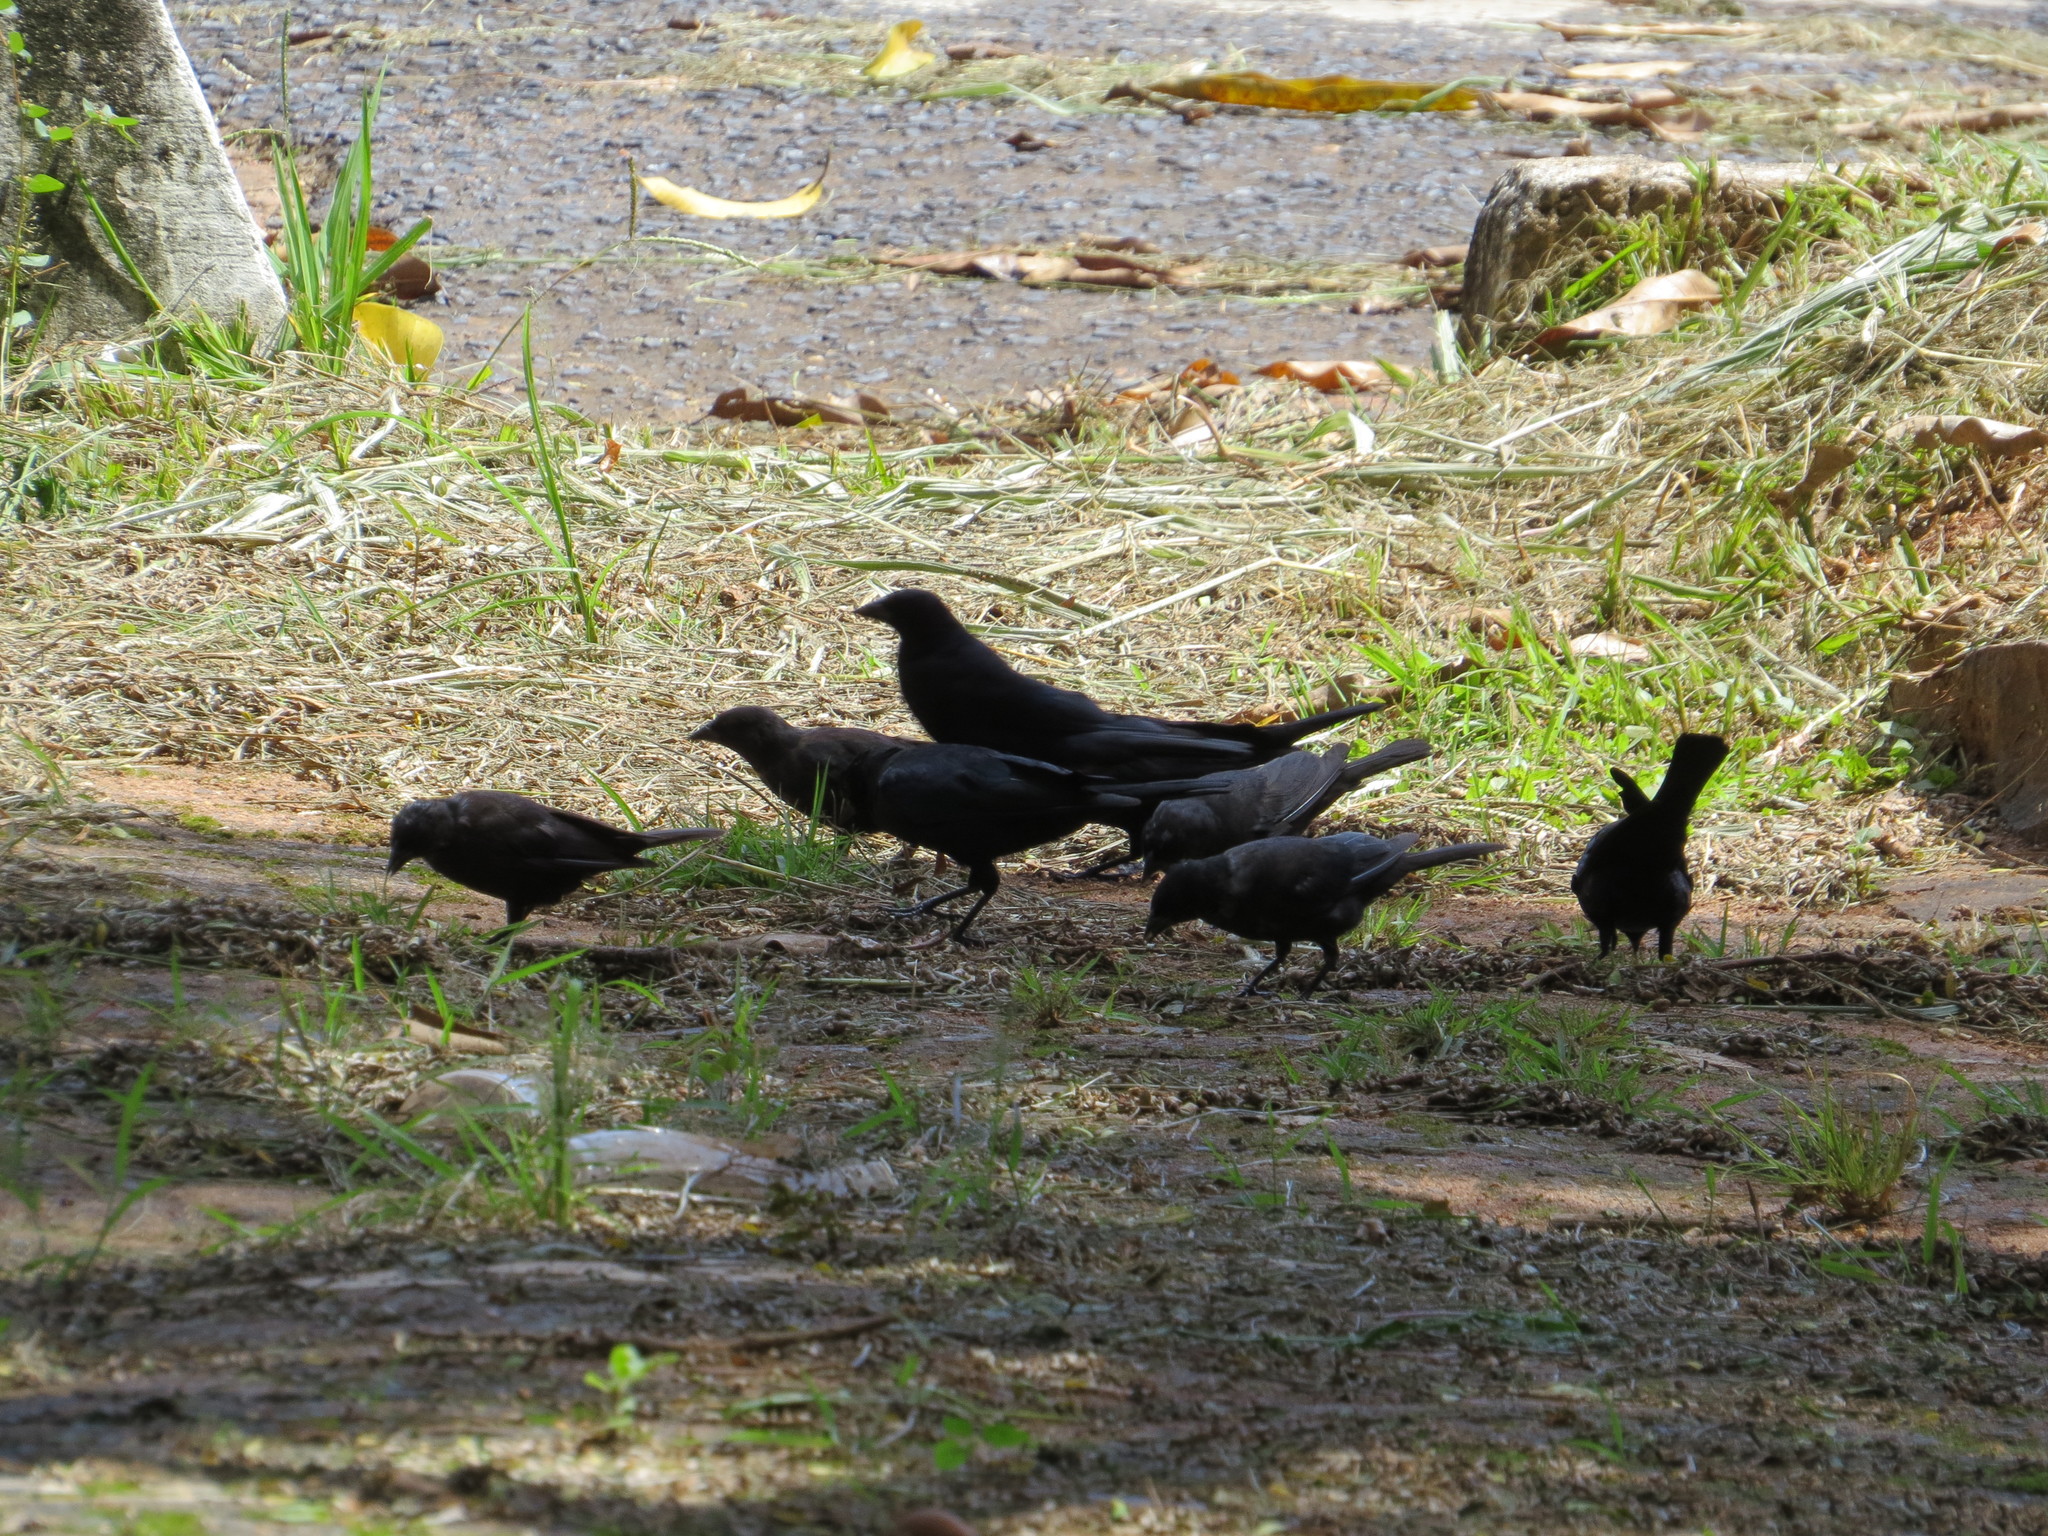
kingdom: Animalia
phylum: Chordata
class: Aves
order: Passeriformes
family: Icteridae
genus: Molothrus
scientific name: Molothrus bonariensis
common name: Shiny cowbird
